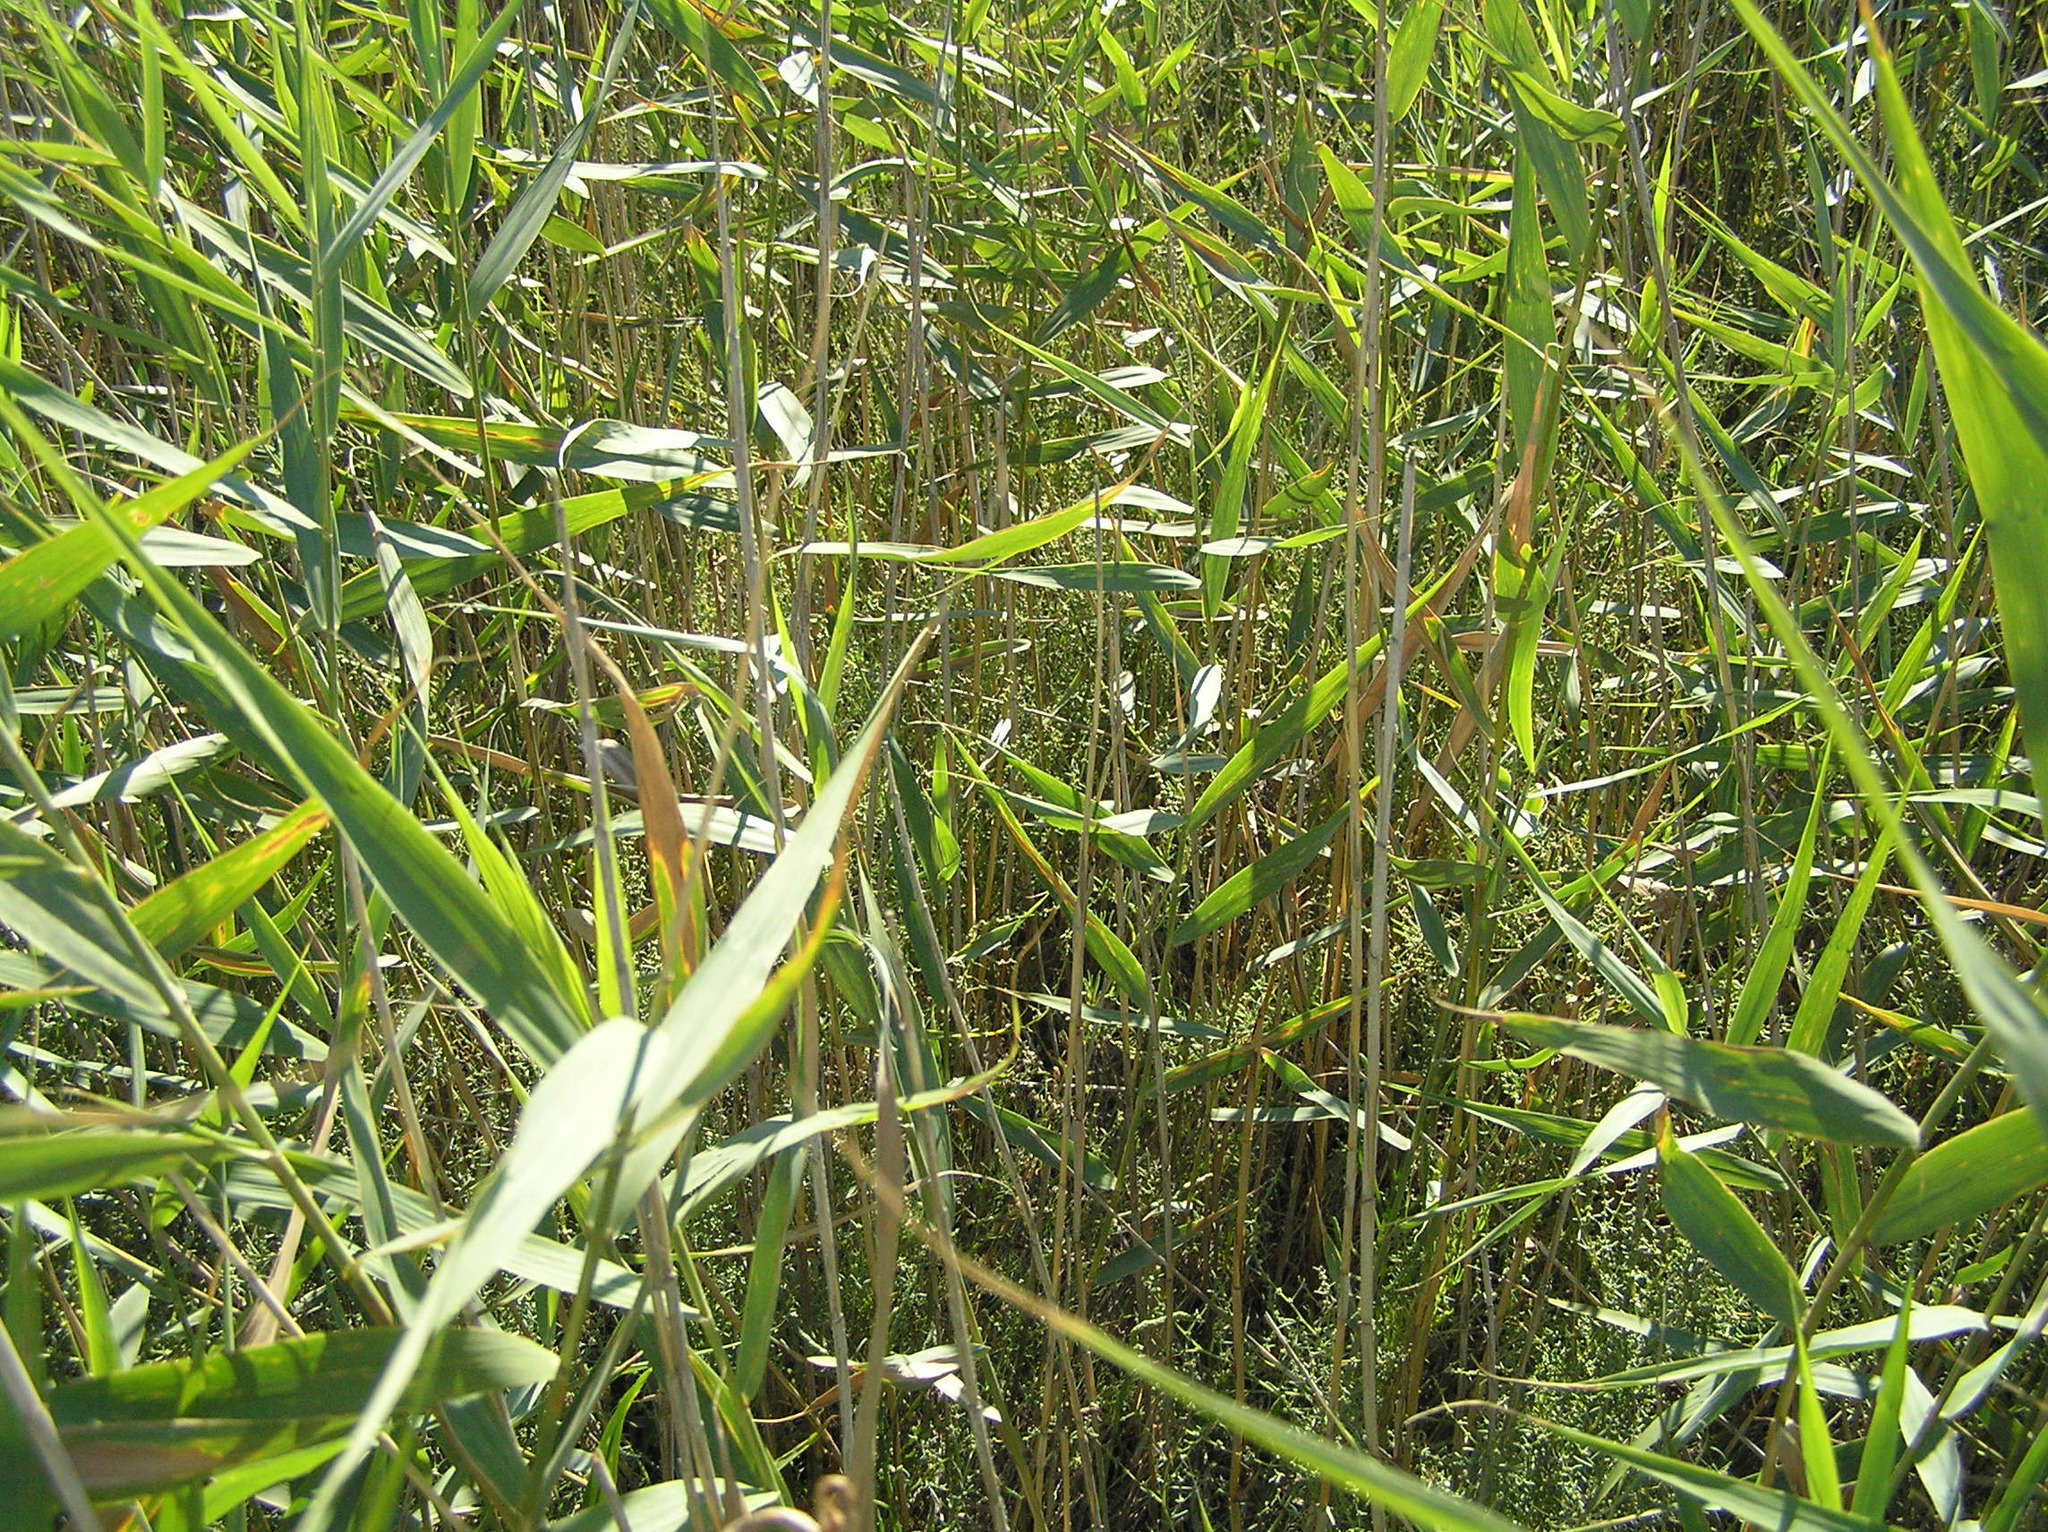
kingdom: Plantae
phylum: Tracheophyta
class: Liliopsida
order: Poales
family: Poaceae
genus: Phragmites
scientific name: Phragmites australis
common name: Common reed
